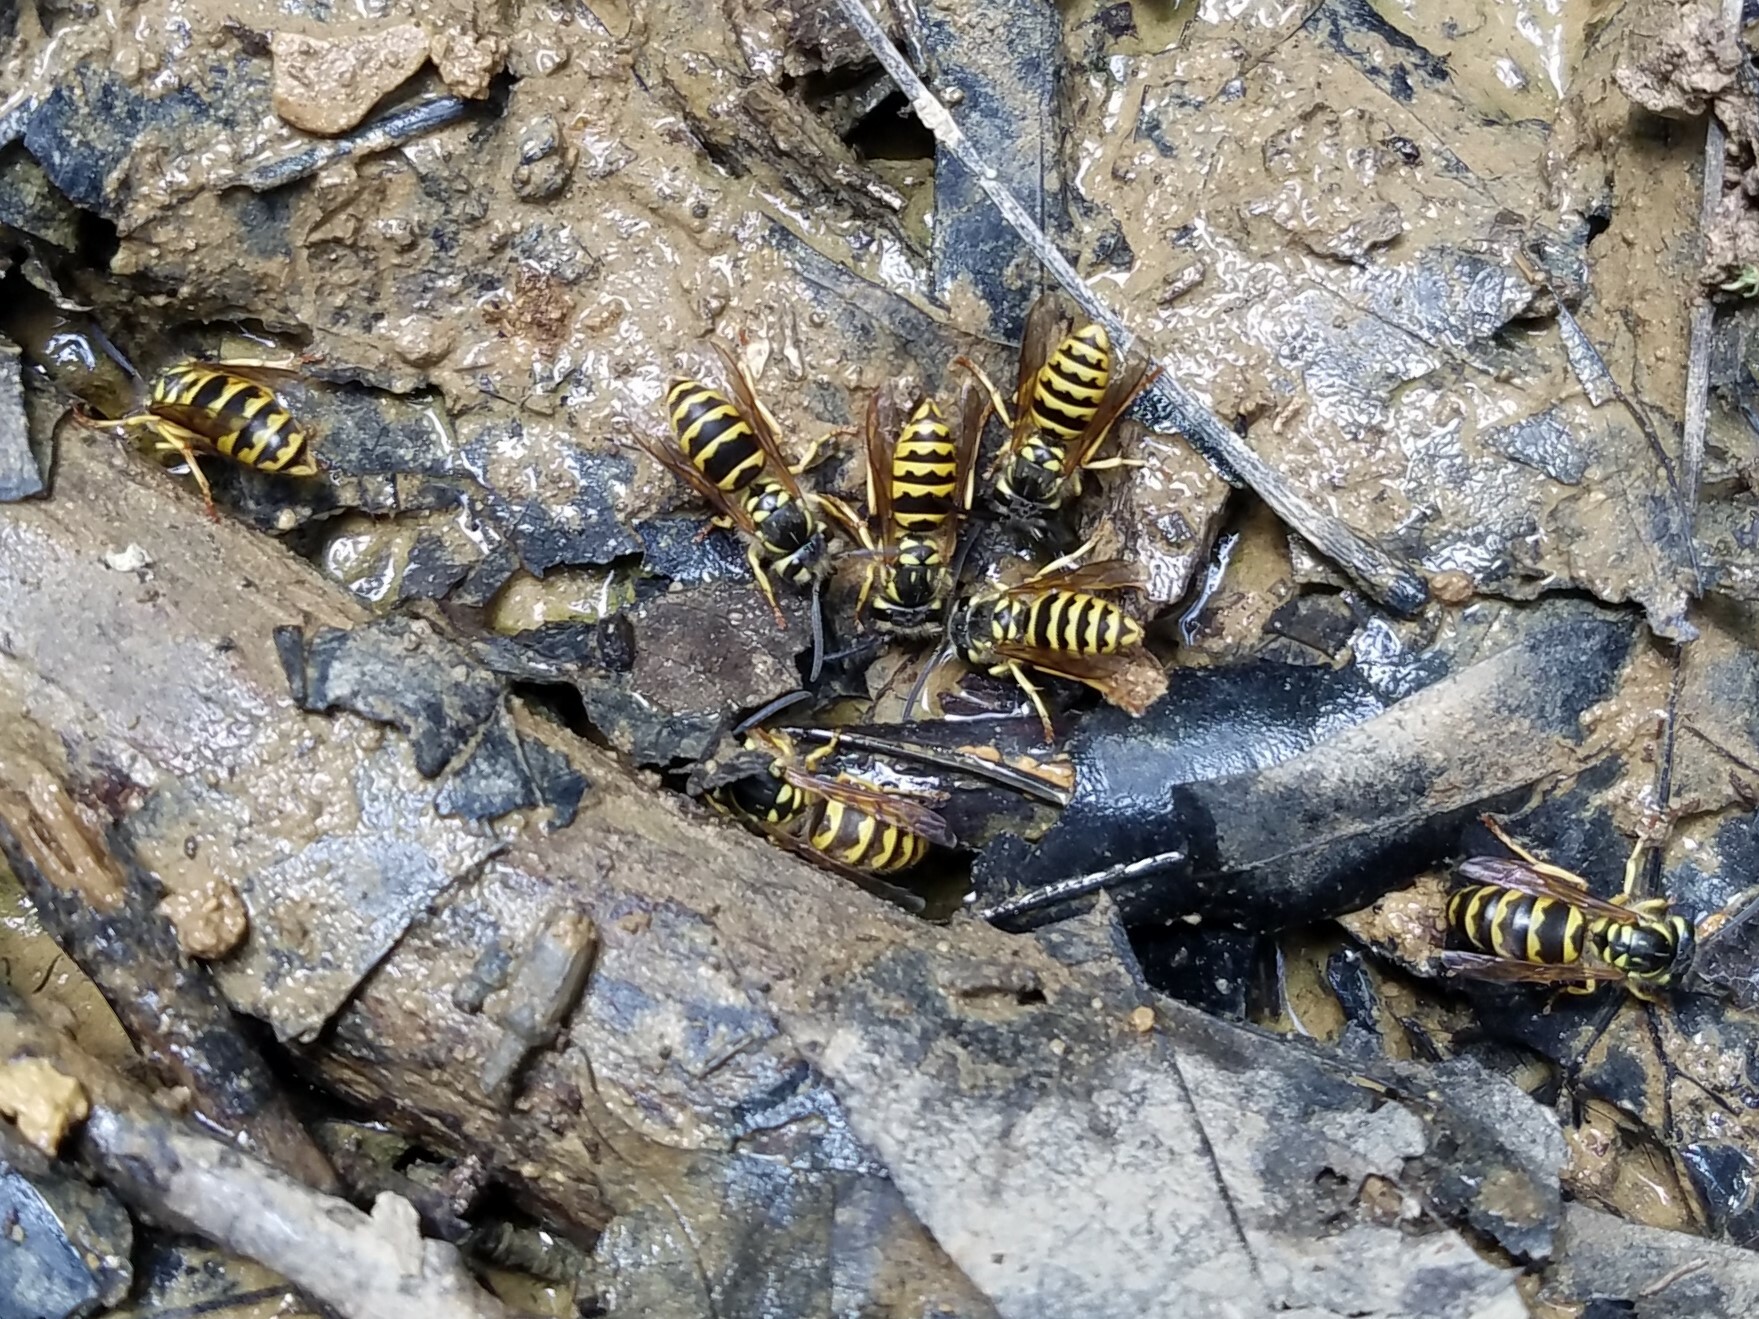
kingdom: Animalia
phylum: Arthropoda
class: Insecta
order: Hymenoptera
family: Vespidae
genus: Vespula
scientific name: Vespula flavopilosa
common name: Downy yellowjacket
